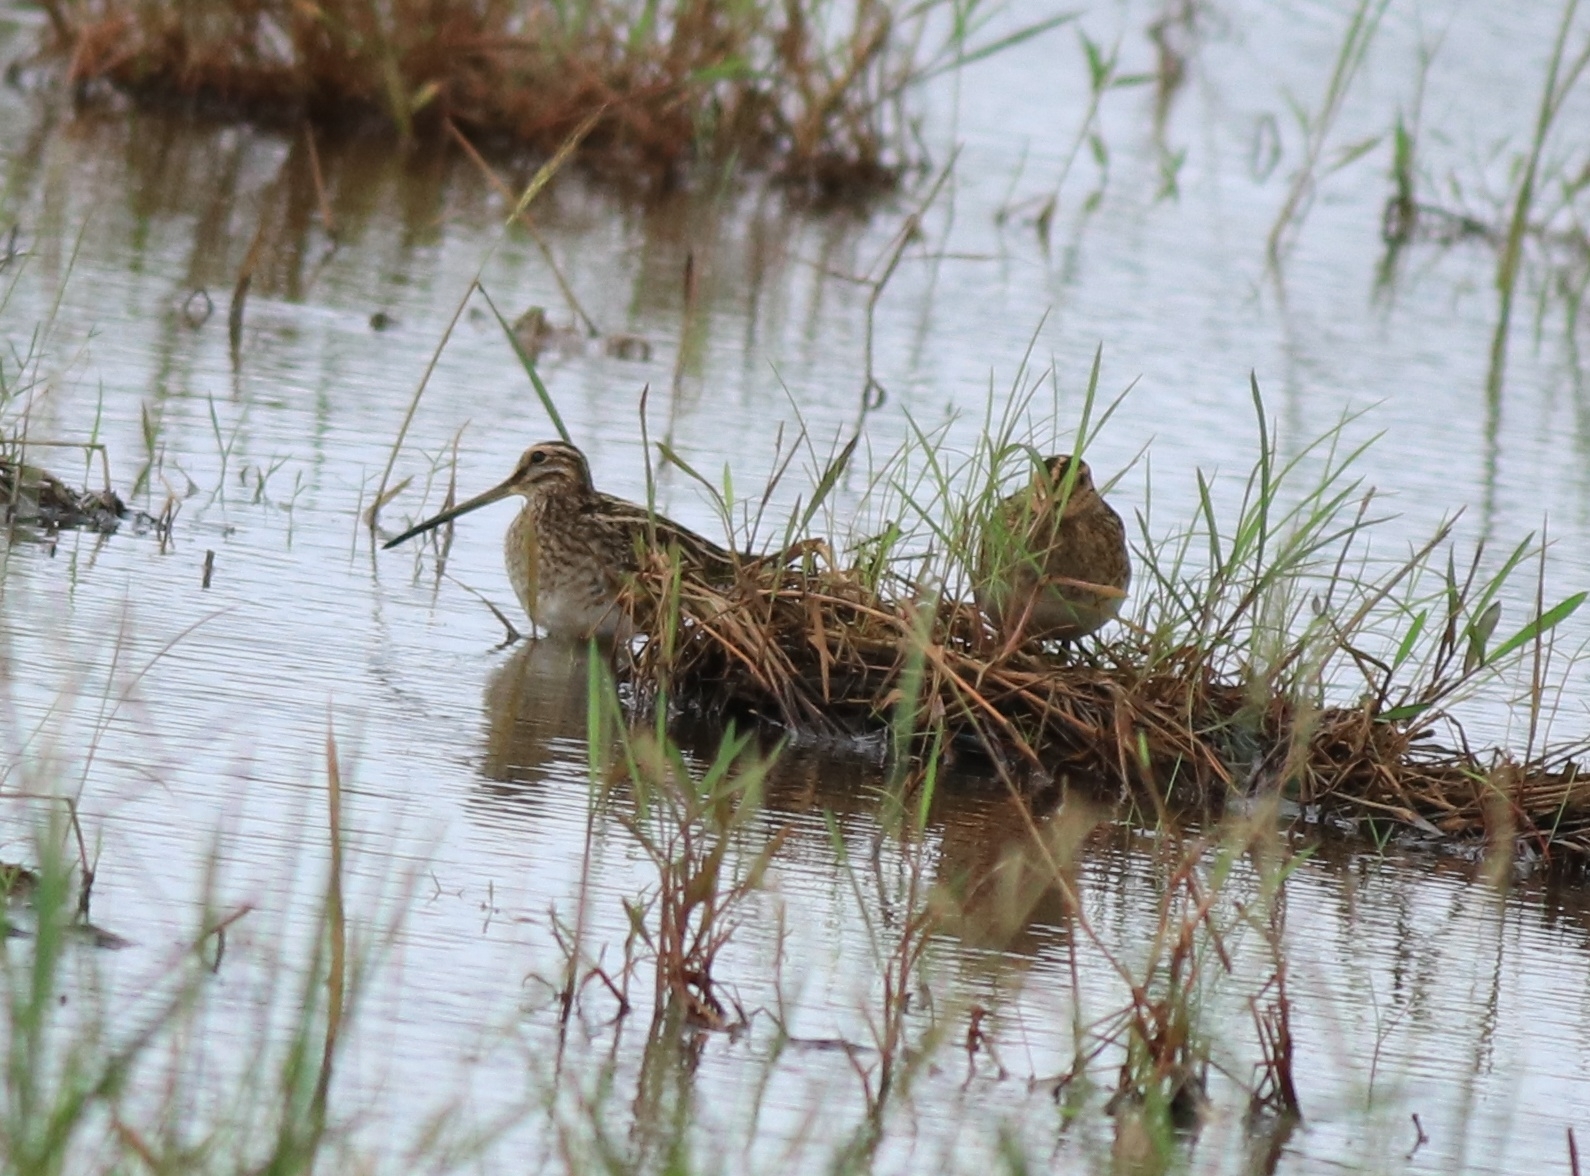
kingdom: Animalia
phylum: Chordata
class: Aves
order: Charadriiformes
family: Scolopacidae
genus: Gallinago
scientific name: Gallinago gallinago
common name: Common snipe
